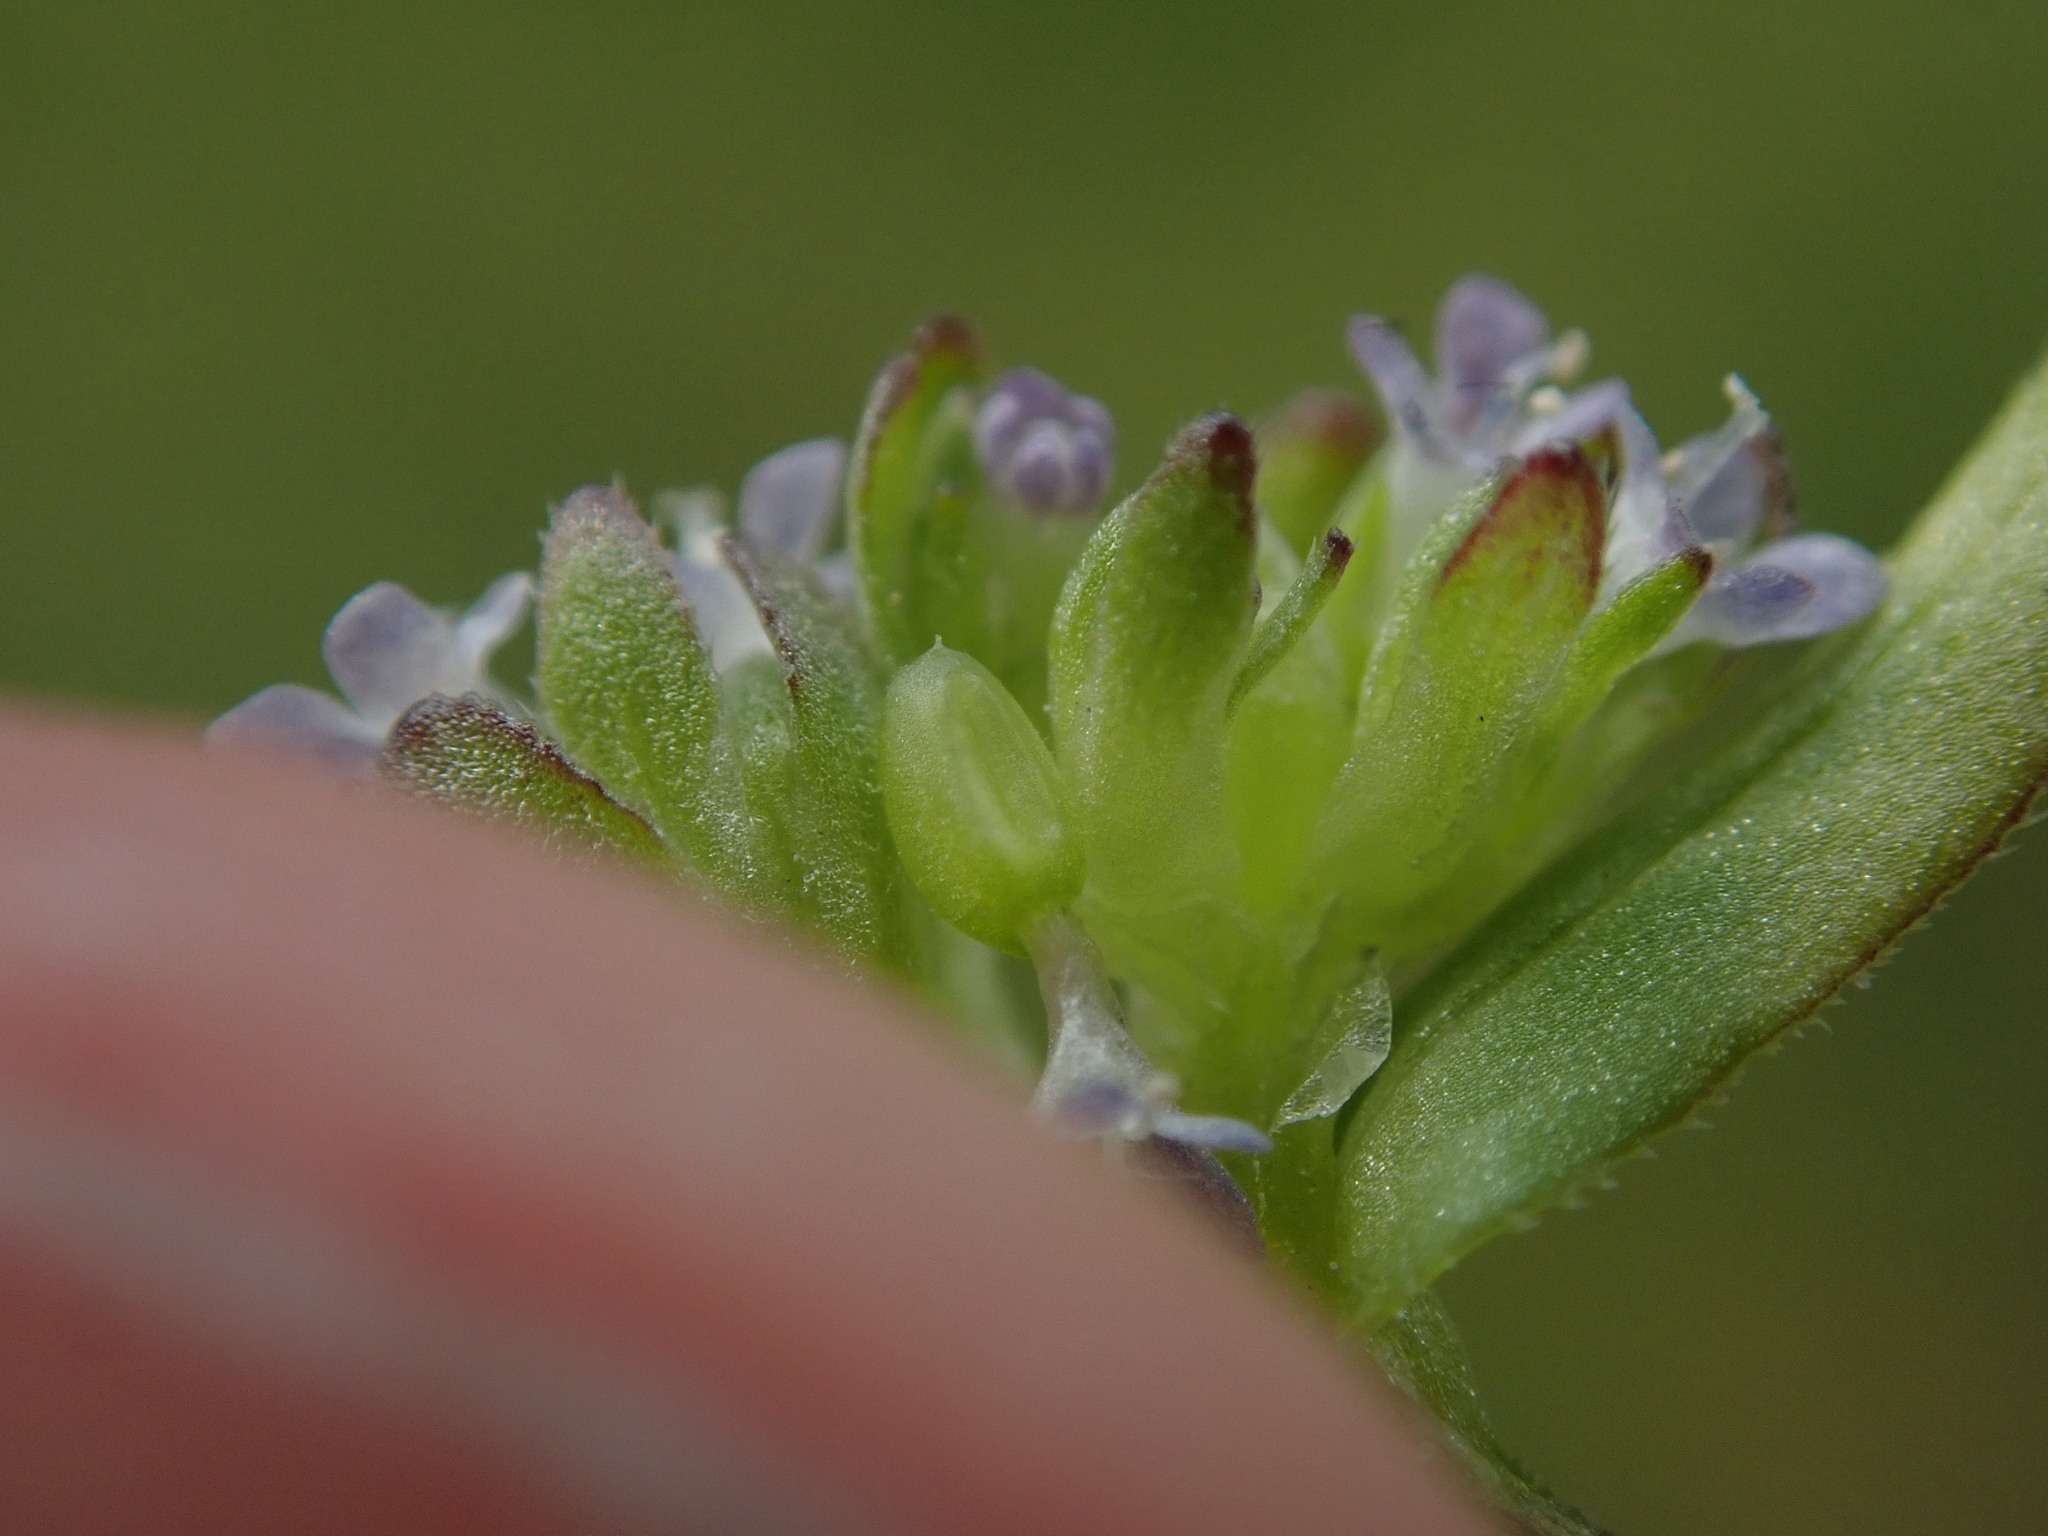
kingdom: Plantae
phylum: Tracheophyta
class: Magnoliopsida
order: Dipsacales
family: Caprifoliaceae
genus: Valerianella
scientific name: Valerianella carinata
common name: Keeled-fruited cornsalad
